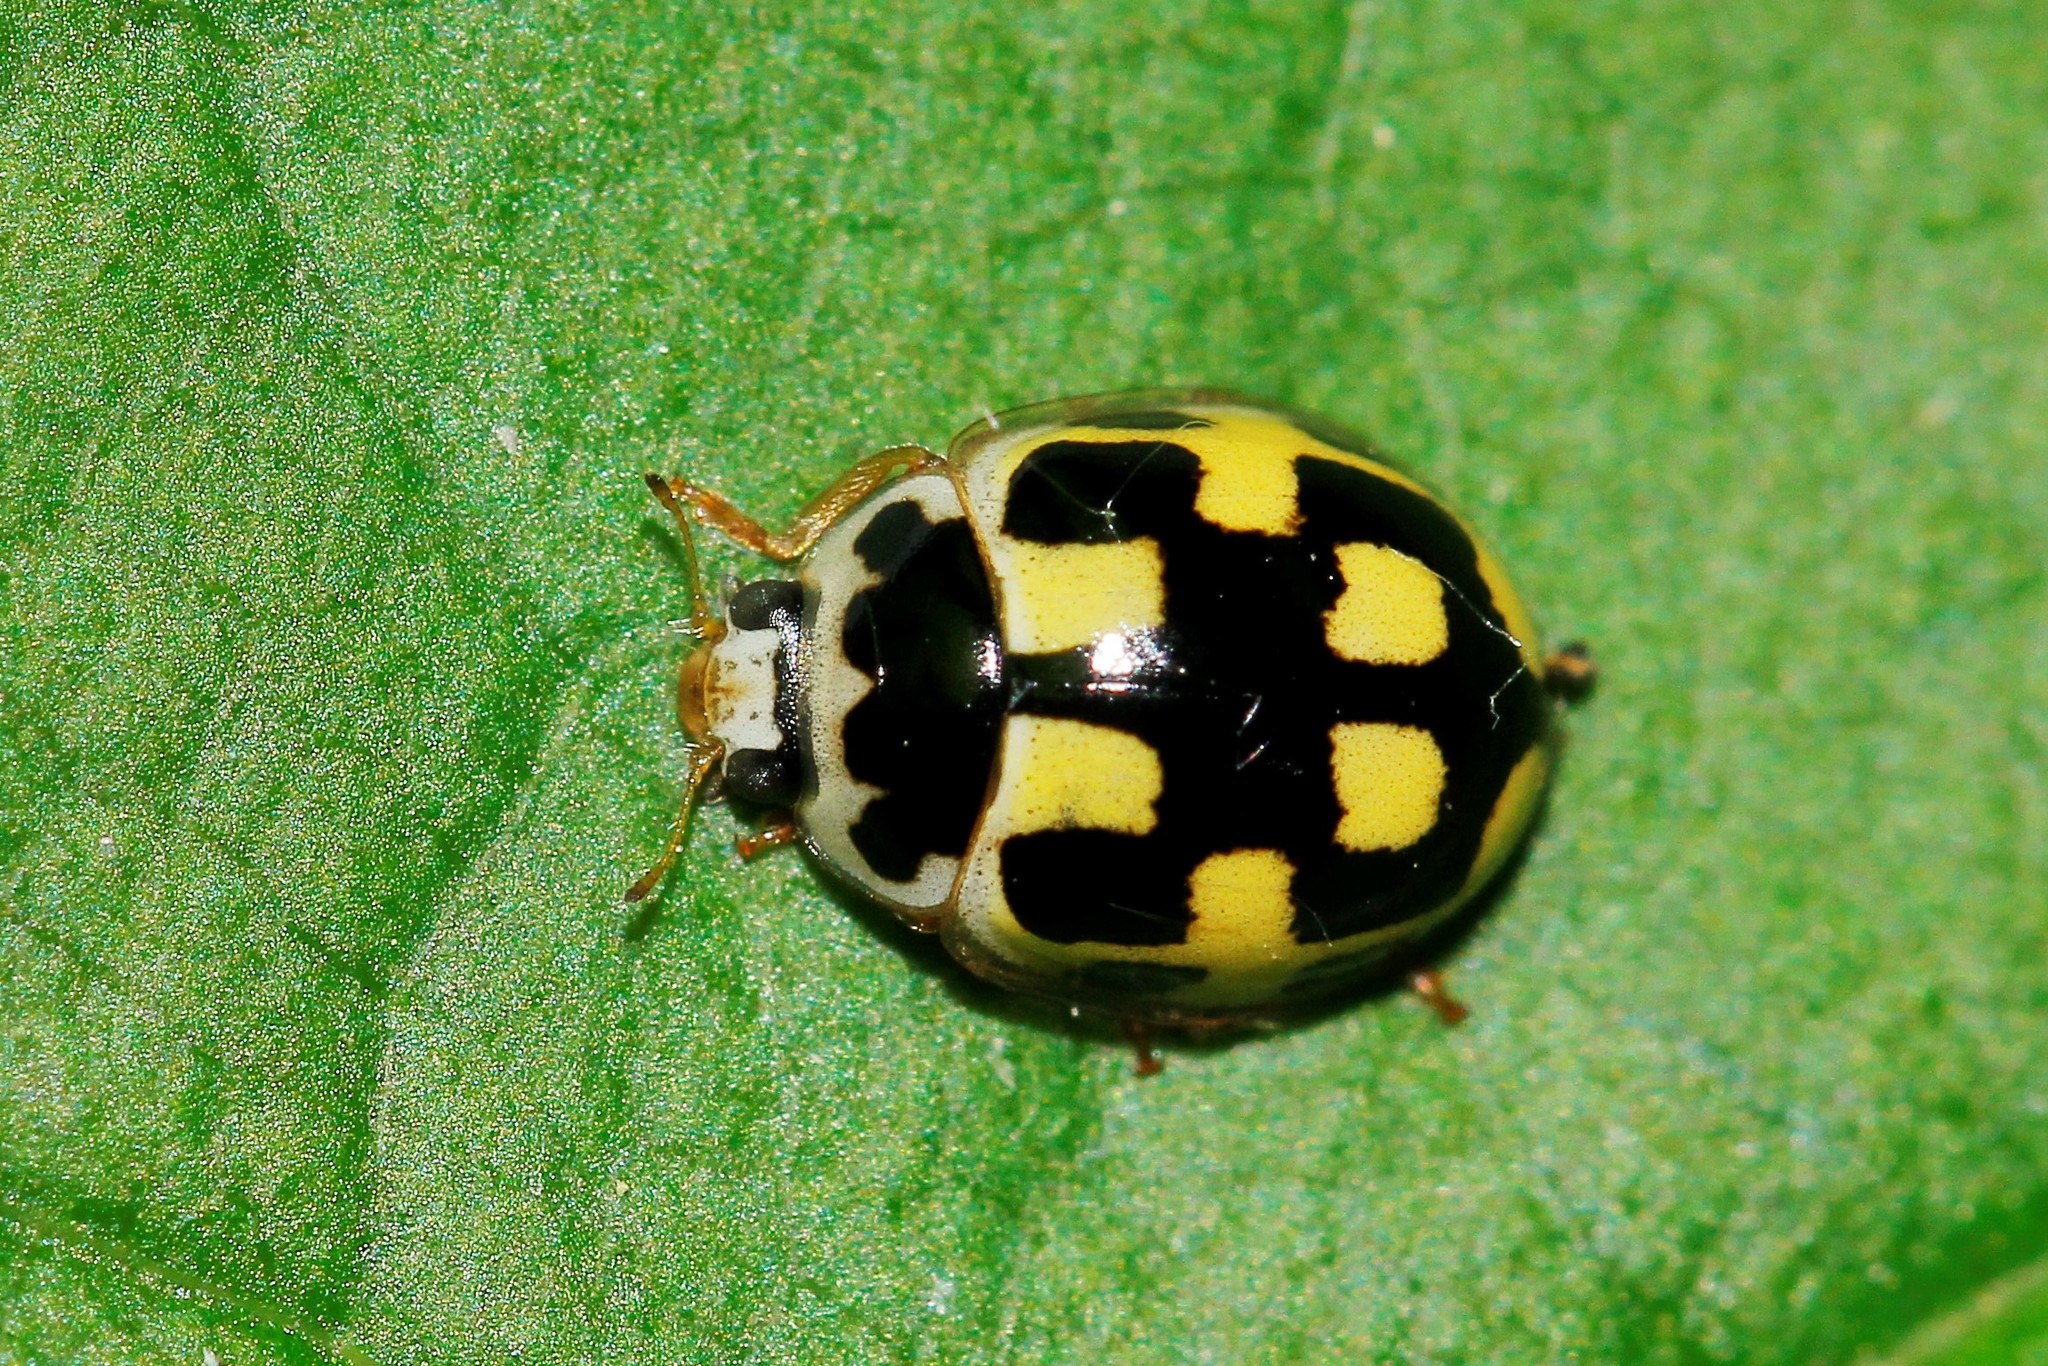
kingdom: Animalia
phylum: Arthropoda
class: Insecta
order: Coleoptera
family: Coccinellidae
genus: Propylaea
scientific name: Propylaea quatuordecimpunctata
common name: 14-spotted ladybird beetle
